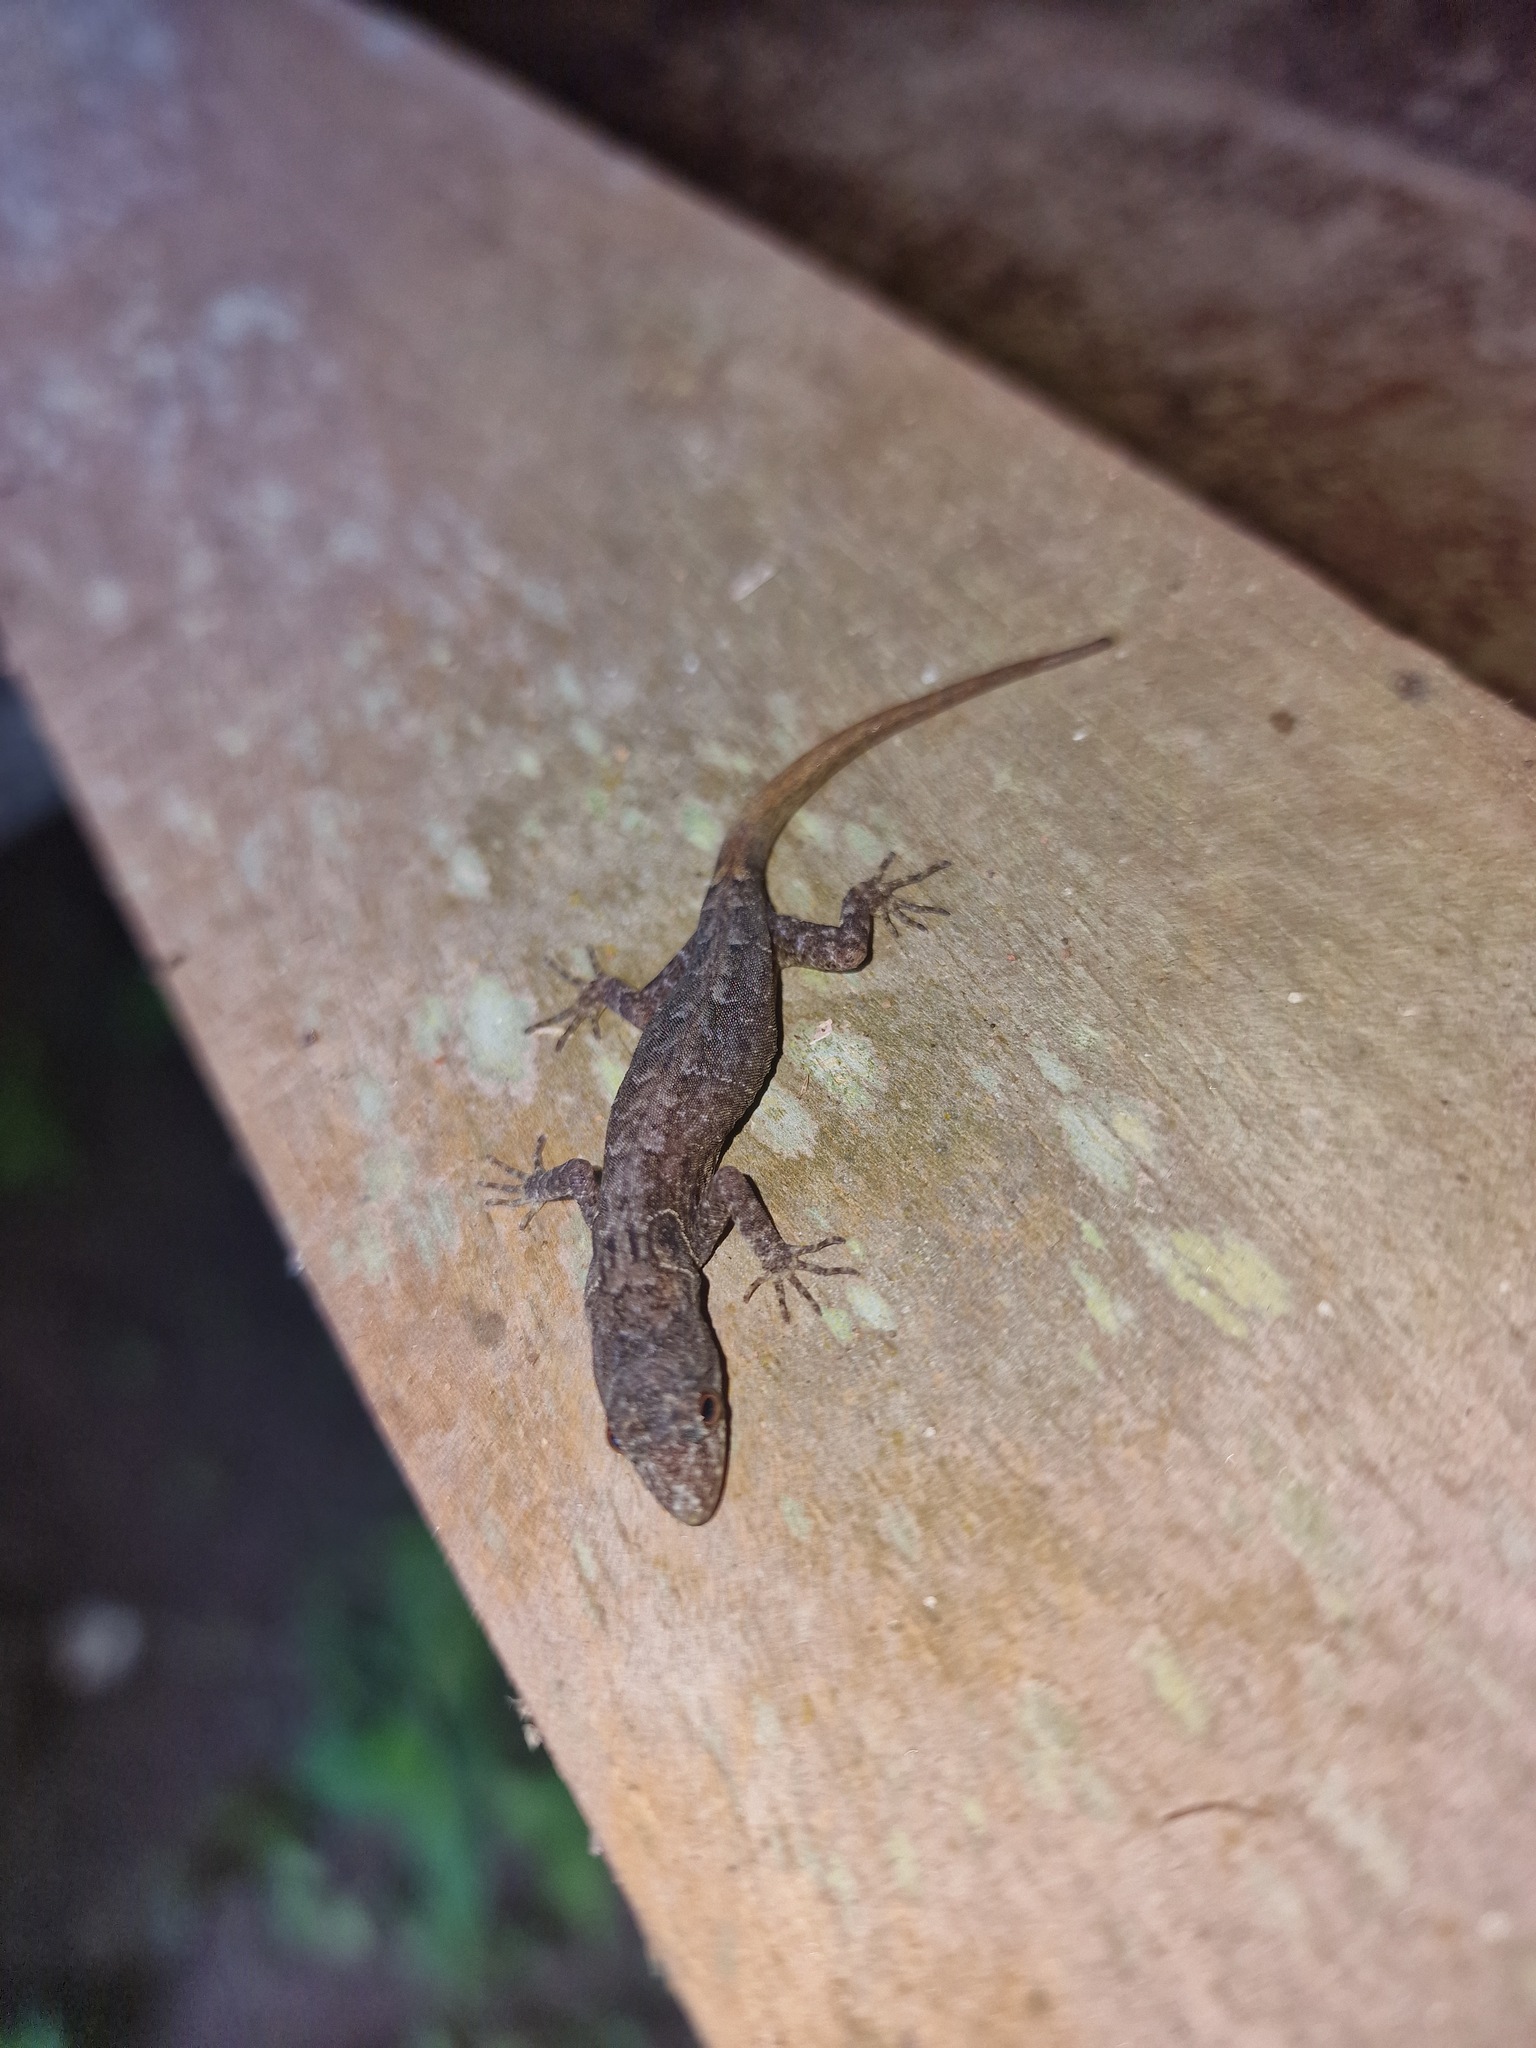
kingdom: Animalia
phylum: Chordata
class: Squamata
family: Sphaerodactylidae
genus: Gonatodes
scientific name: Gonatodes humeralis
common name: South american clawed gecko
